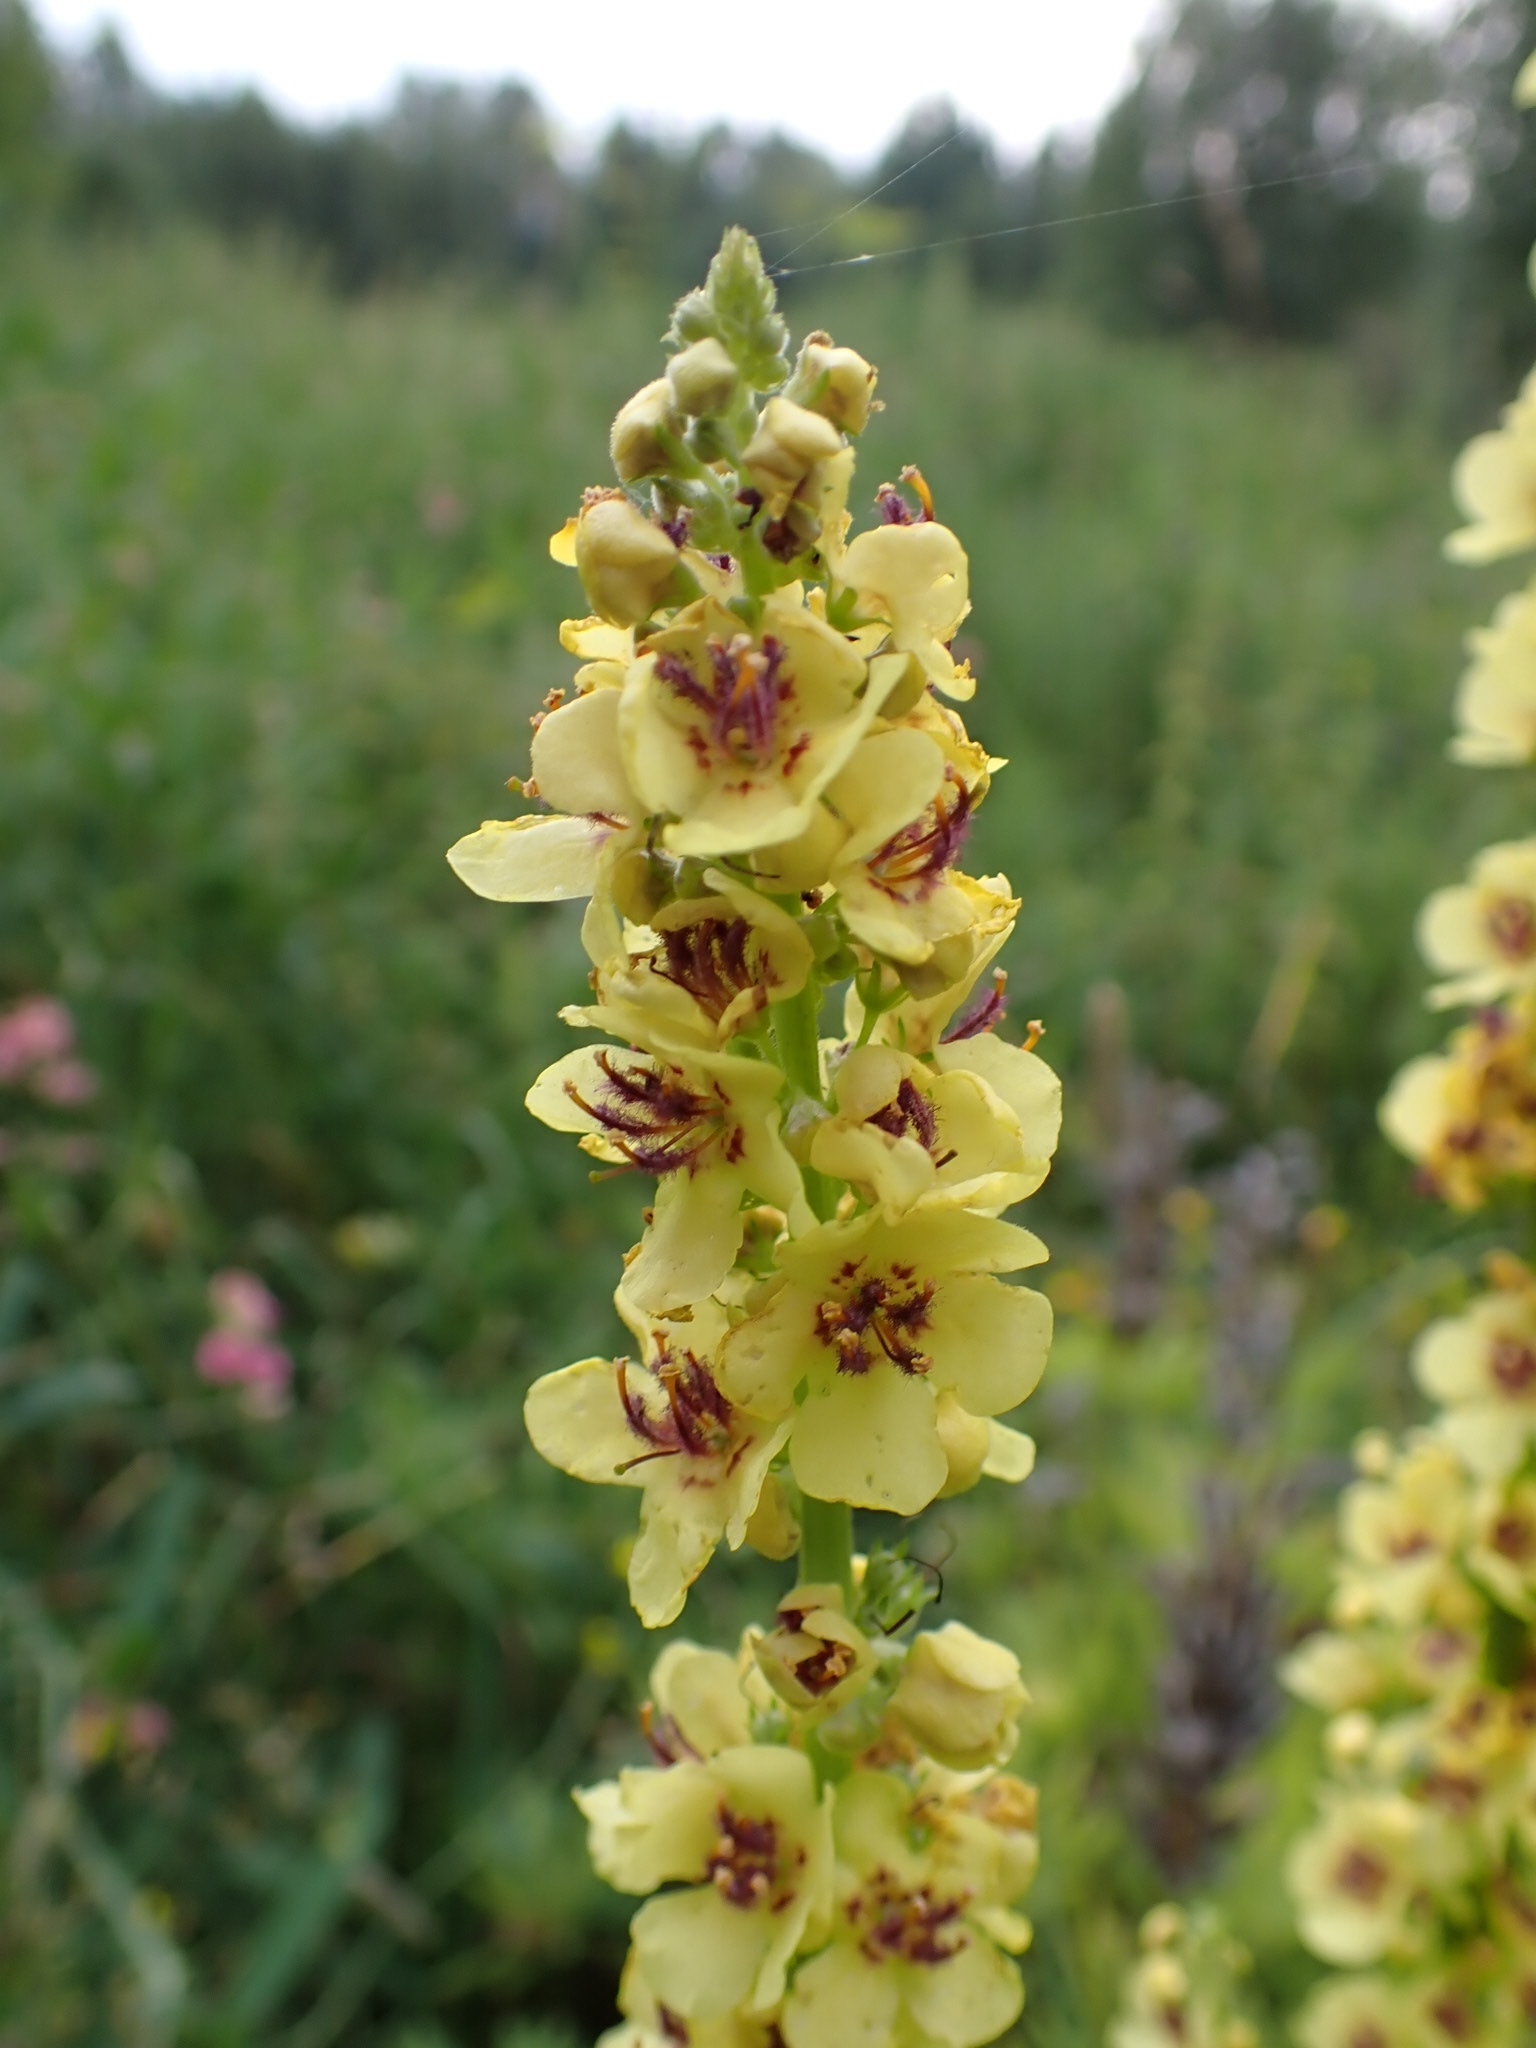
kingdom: Plantae
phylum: Tracheophyta
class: Magnoliopsida
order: Lamiales
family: Scrophulariaceae
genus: Verbascum
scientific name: Verbascum nigrum
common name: Dark mullein
